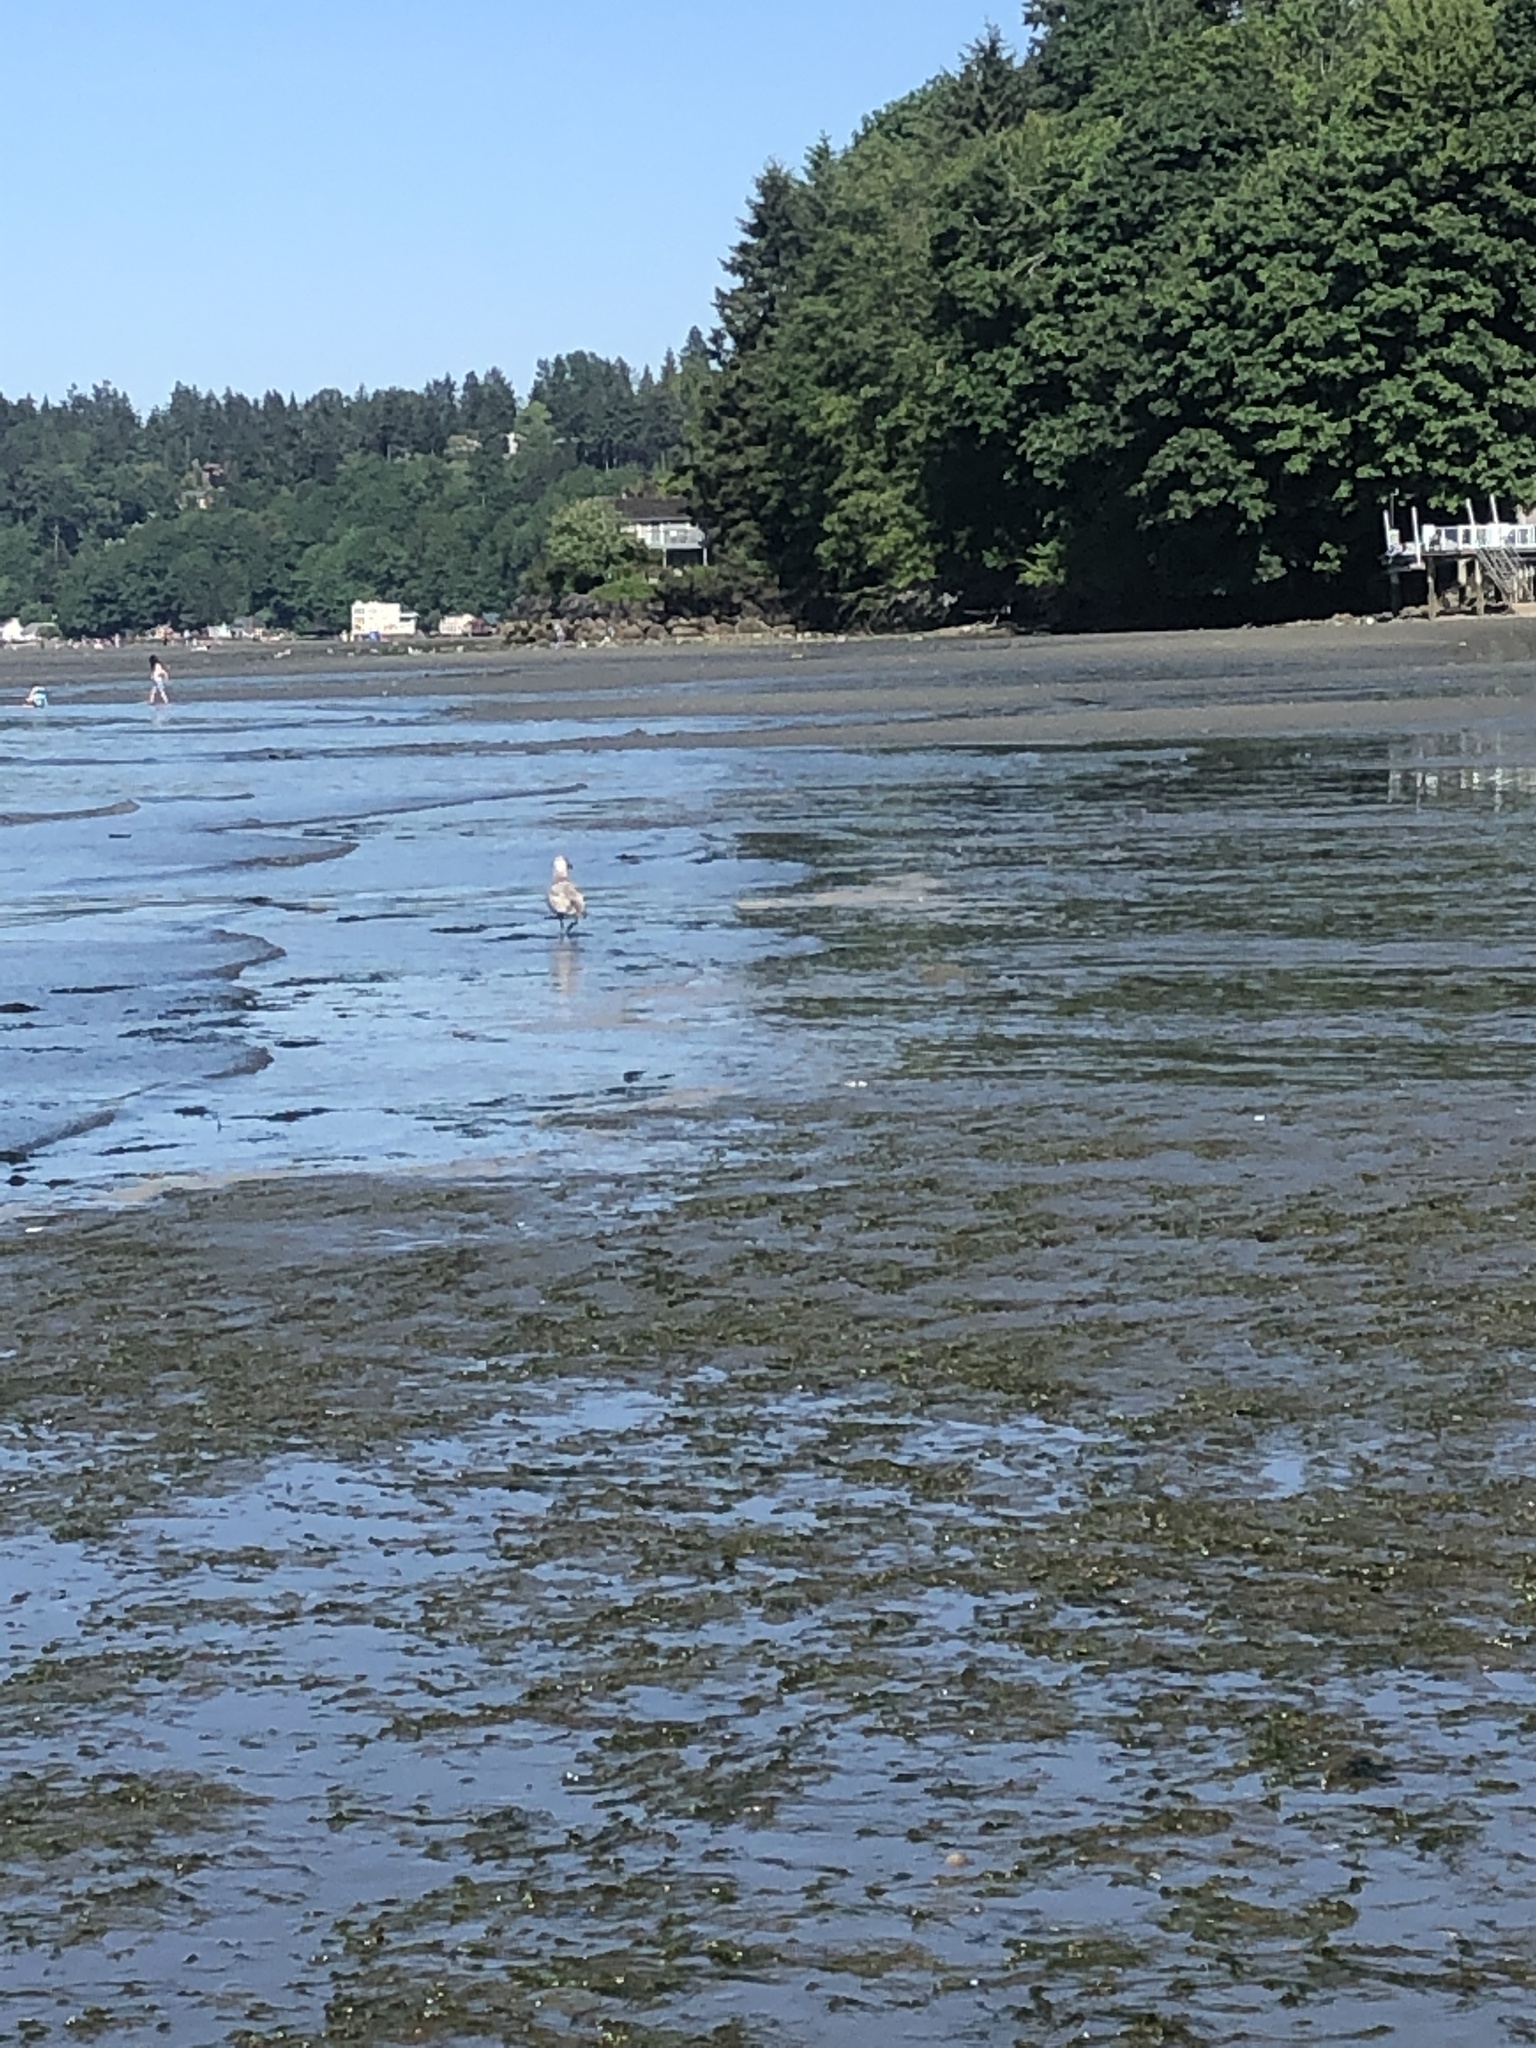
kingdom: Animalia
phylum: Chordata
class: Aves
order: Charadriiformes
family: Laridae
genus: Larus
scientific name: Larus
